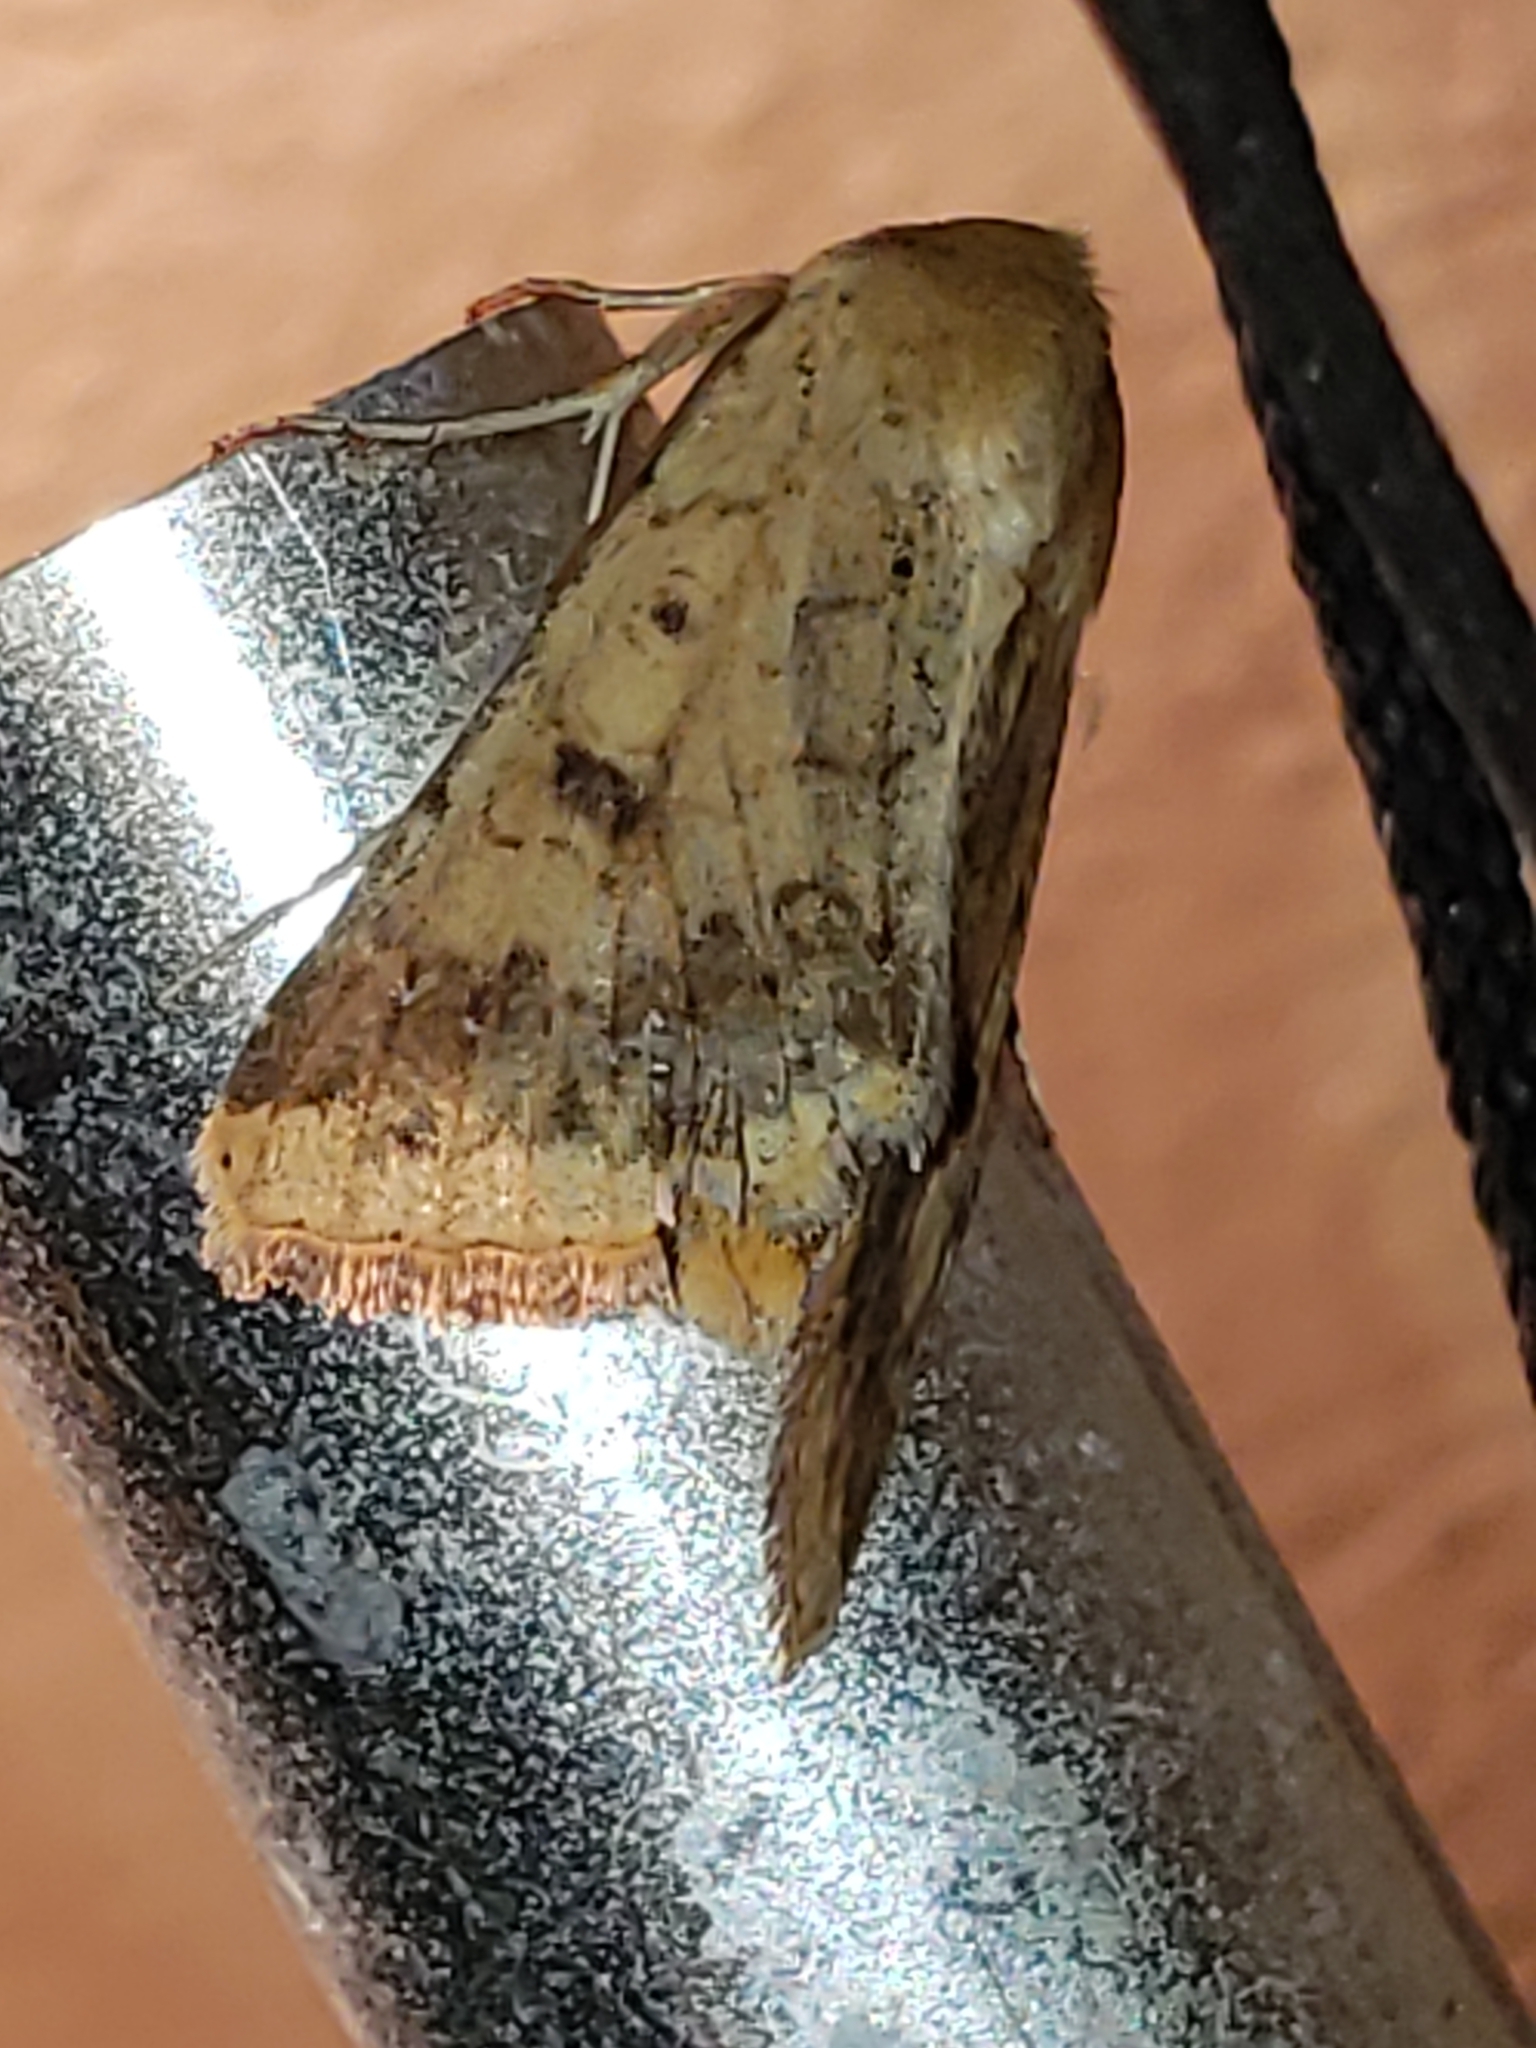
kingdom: Animalia
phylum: Arthropoda
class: Insecta
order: Lepidoptera
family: Noctuidae
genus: Helicoverpa
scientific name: Helicoverpa zea
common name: Bollworm
